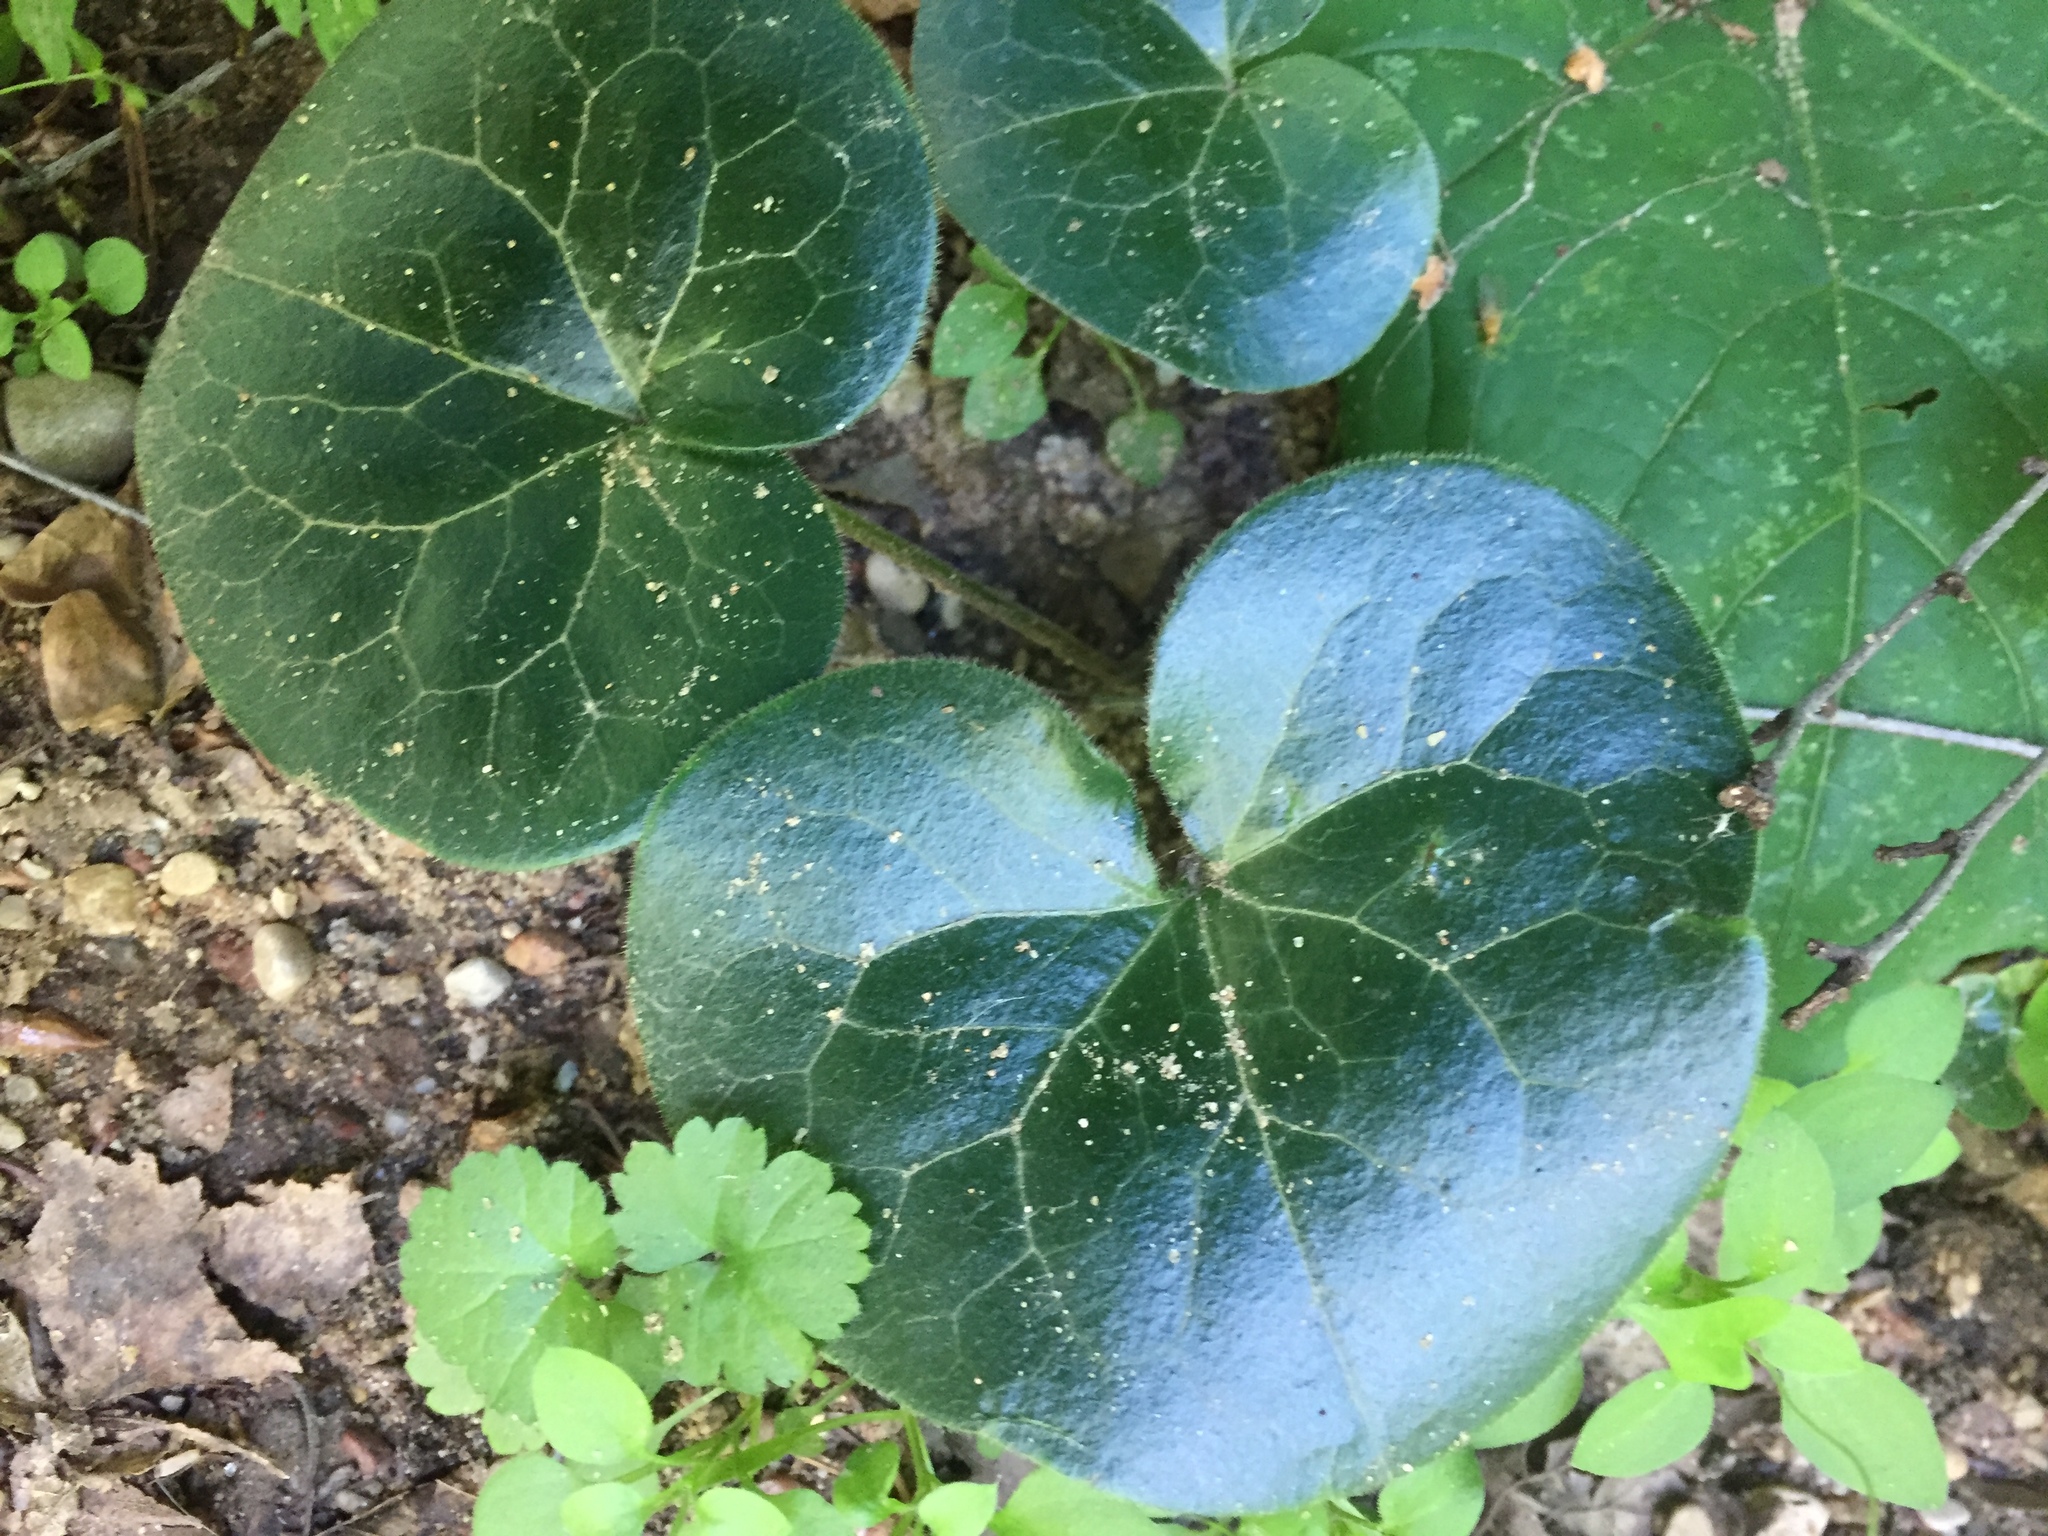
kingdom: Plantae
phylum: Tracheophyta
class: Magnoliopsida
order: Piperales
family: Aristolochiaceae
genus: Asarum
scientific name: Asarum europaeum
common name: Asarabacca
